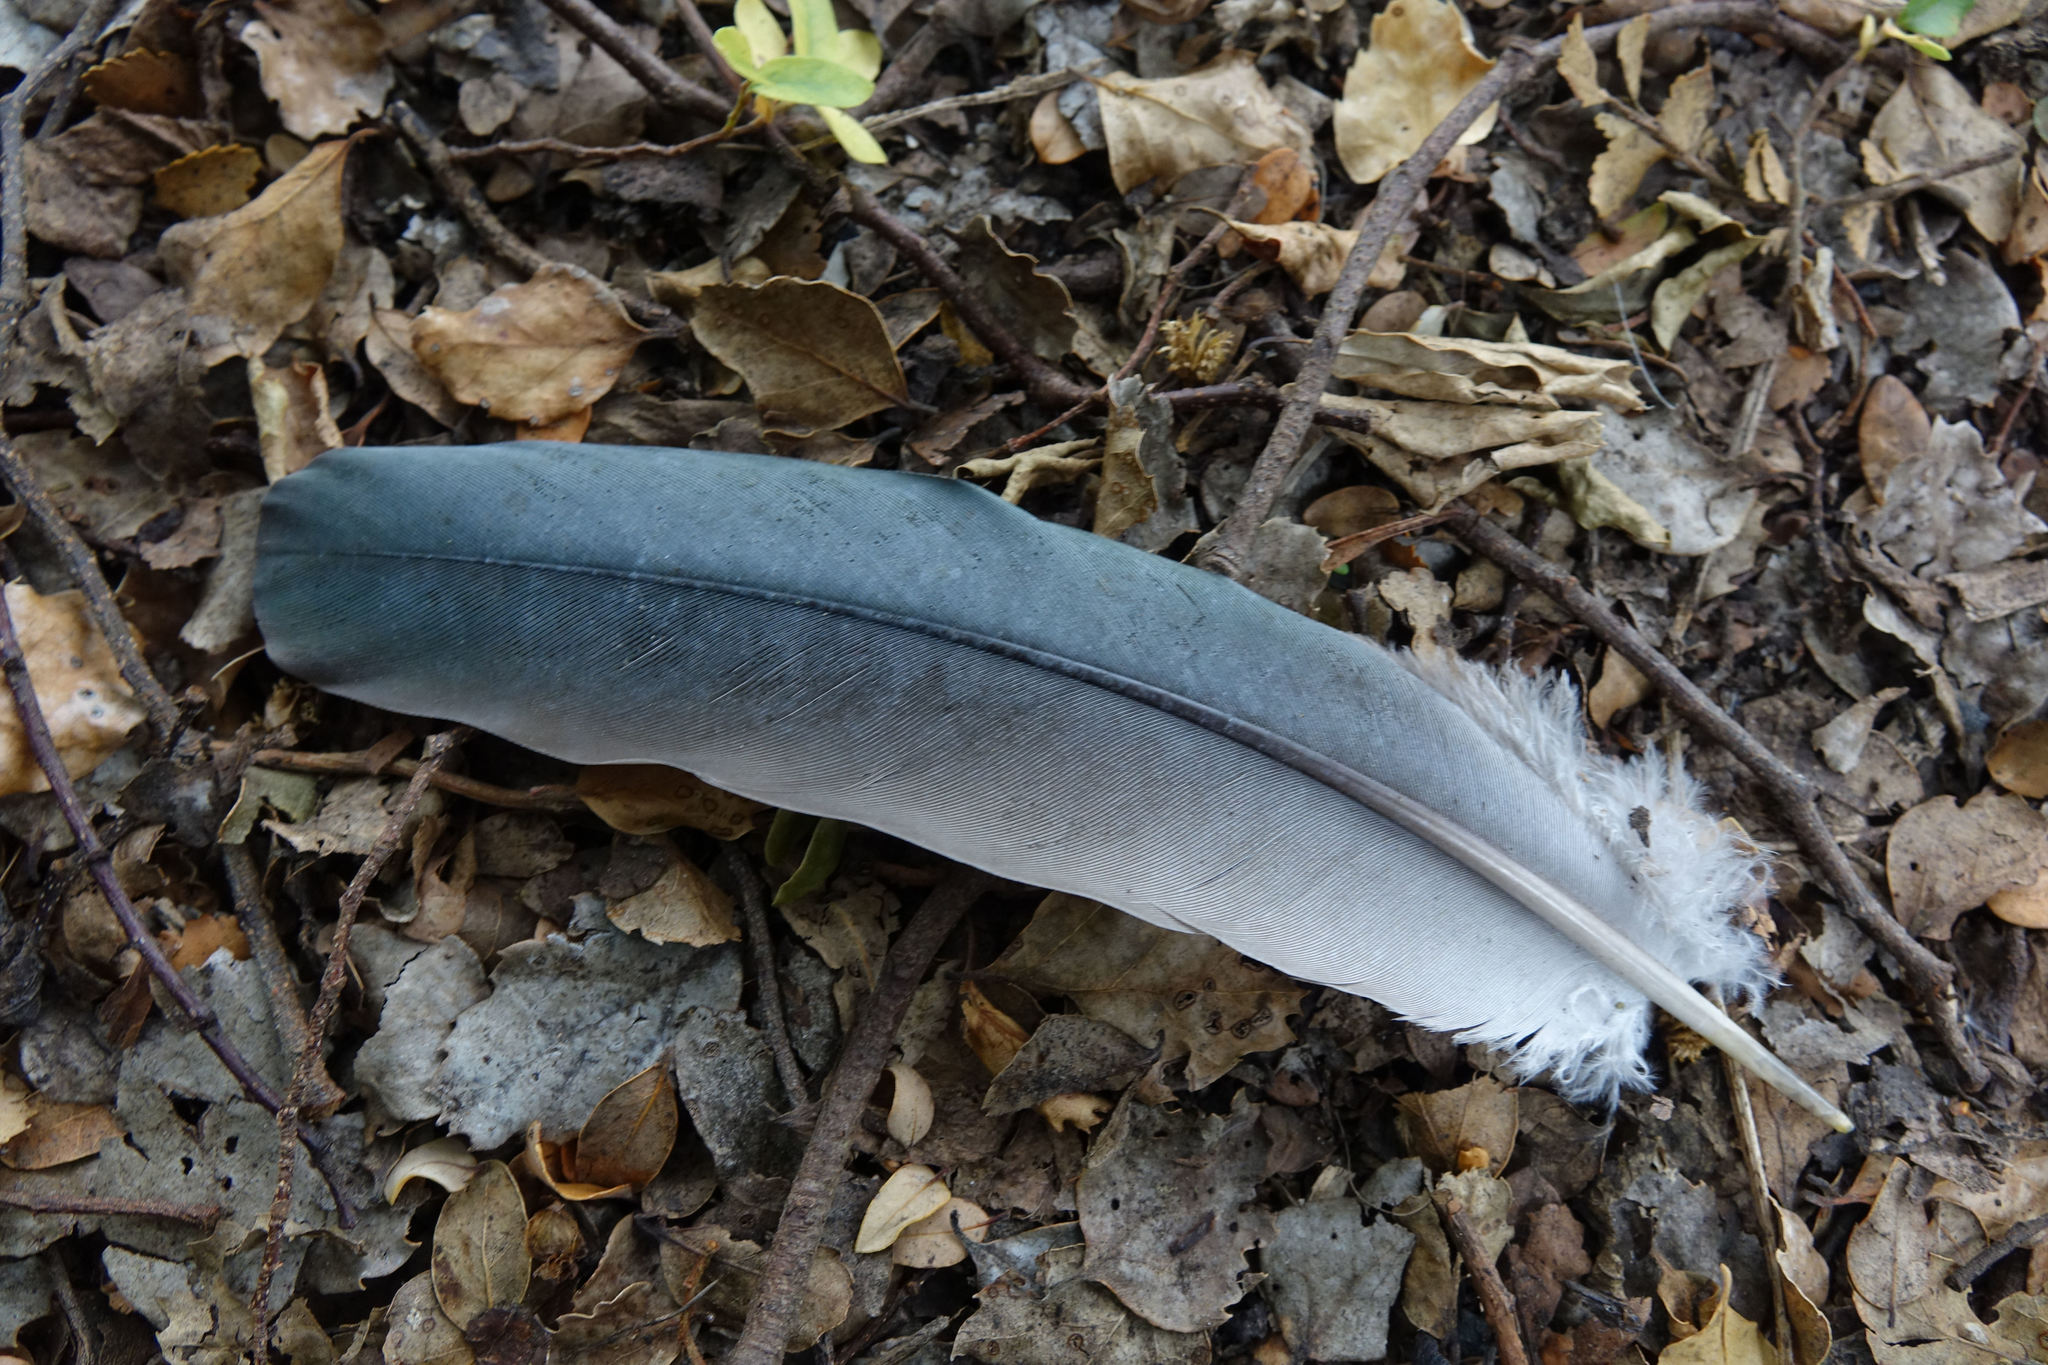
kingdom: Animalia
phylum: Chordata
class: Aves
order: Columbiformes
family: Columbidae
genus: Hemiphaga
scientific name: Hemiphaga novaeseelandiae
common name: New zealand pigeon
